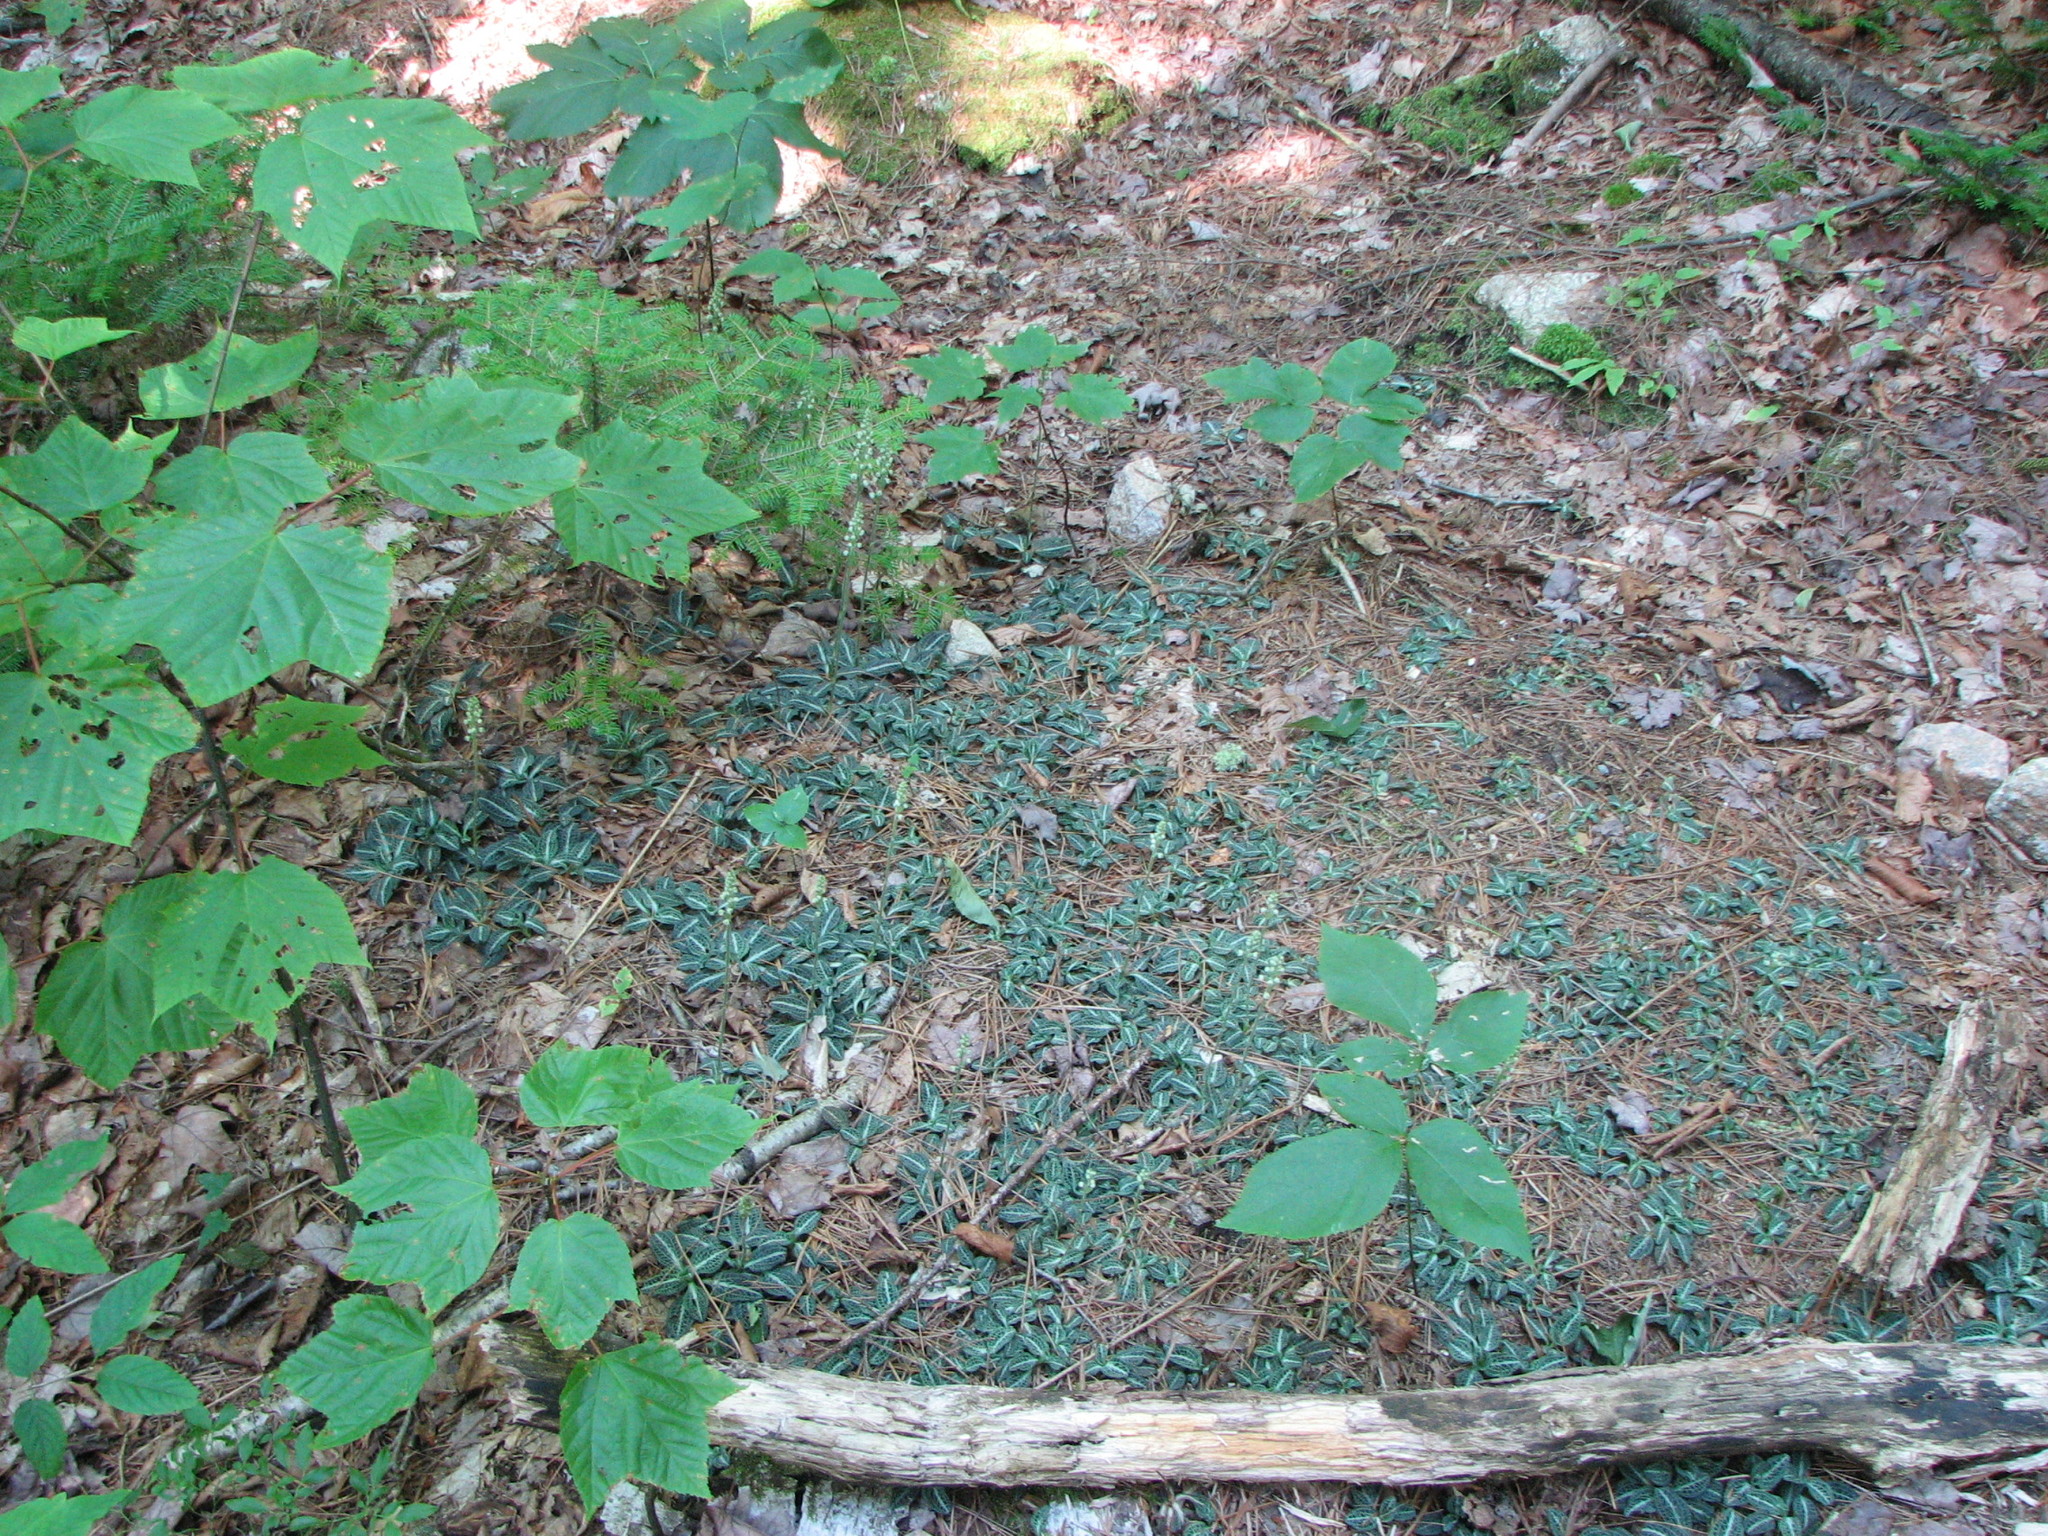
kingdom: Plantae
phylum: Tracheophyta
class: Liliopsida
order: Asparagales
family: Orchidaceae
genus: Goodyera
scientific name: Goodyera pubescens
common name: Downy rattlesnake-plantain
